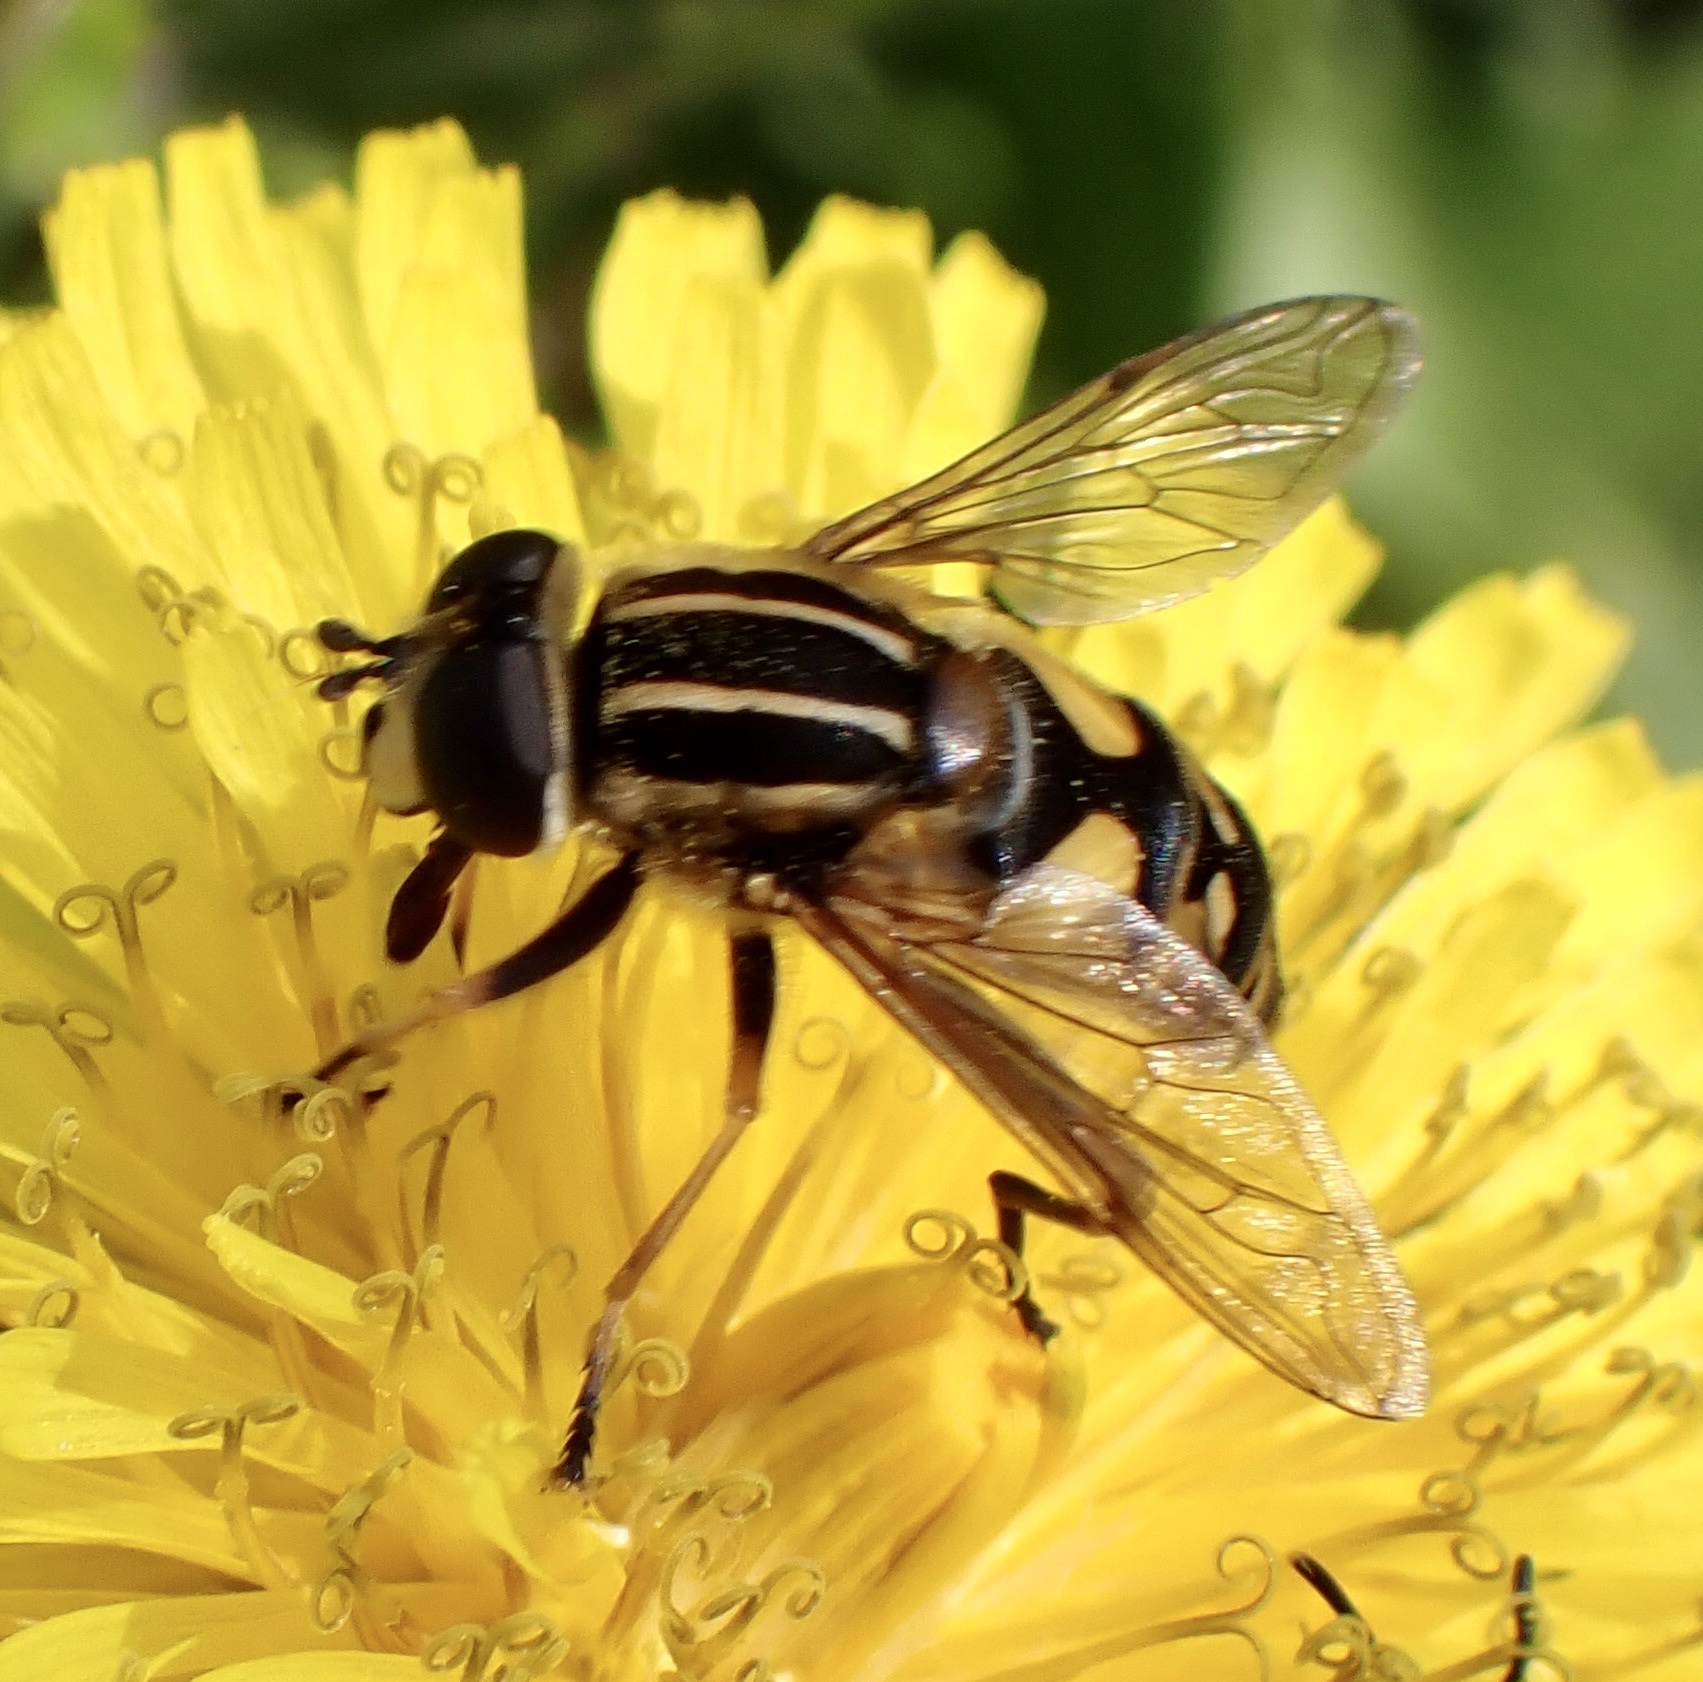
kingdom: Animalia
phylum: Arthropoda
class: Insecta
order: Diptera
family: Syrphidae
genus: Helophilus
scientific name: Helophilus pendulus
